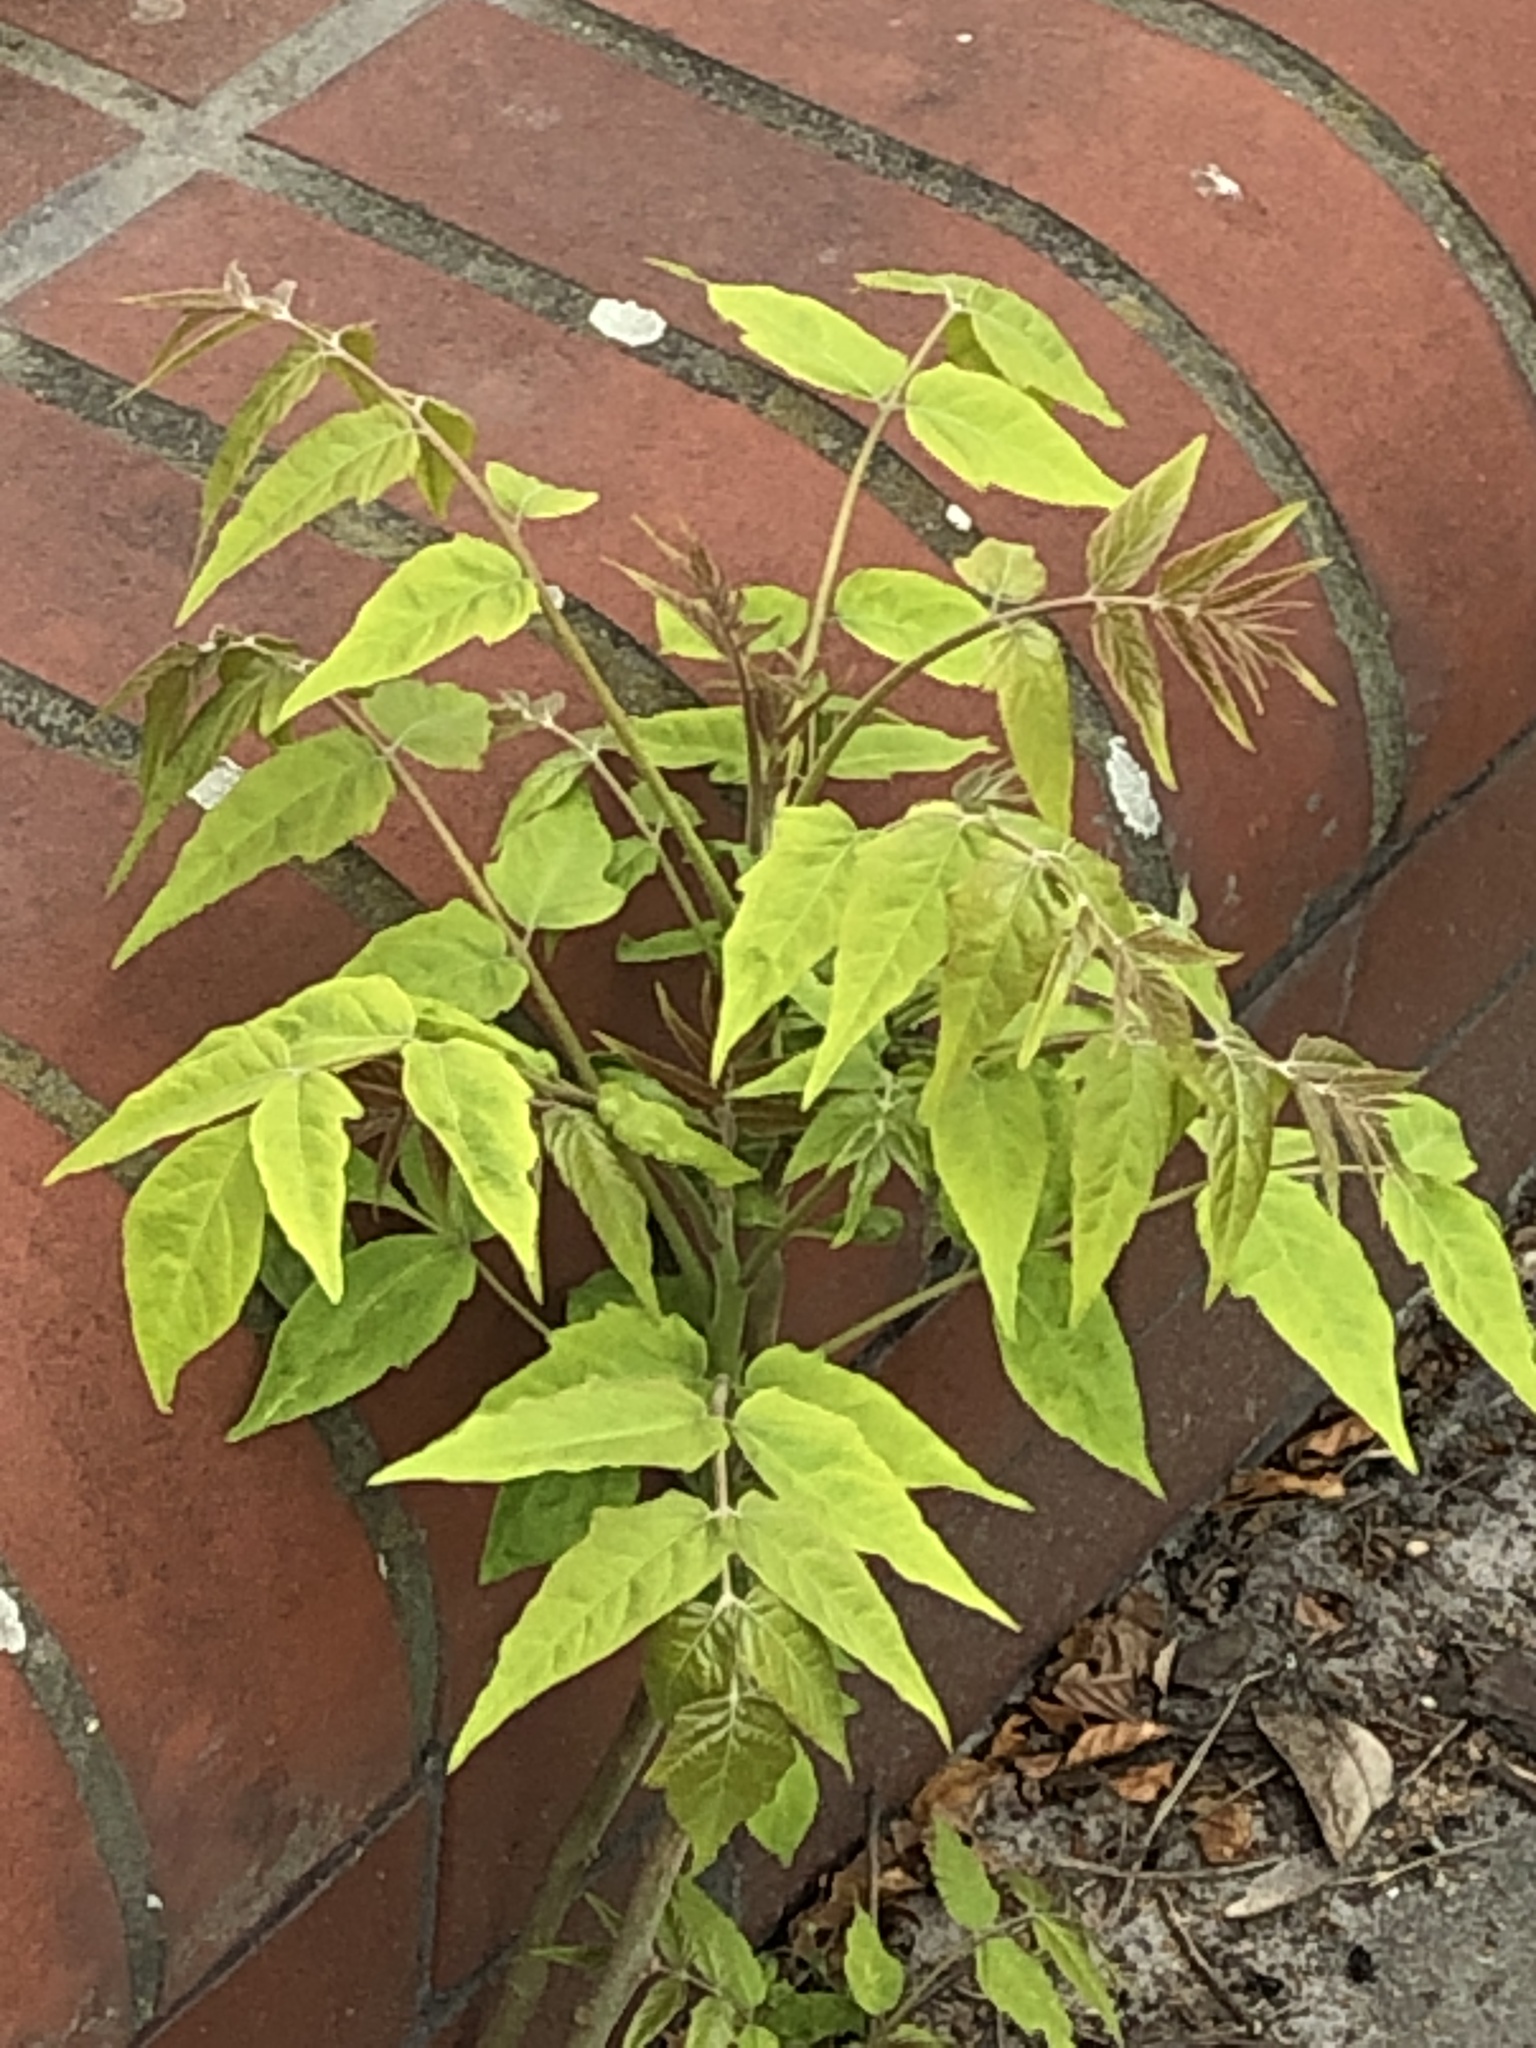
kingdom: Plantae
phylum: Tracheophyta
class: Magnoliopsida
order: Sapindales
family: Simaroubaceae
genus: Ailanthus
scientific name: Ailanthus altissima
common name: Tree-of-heaven
